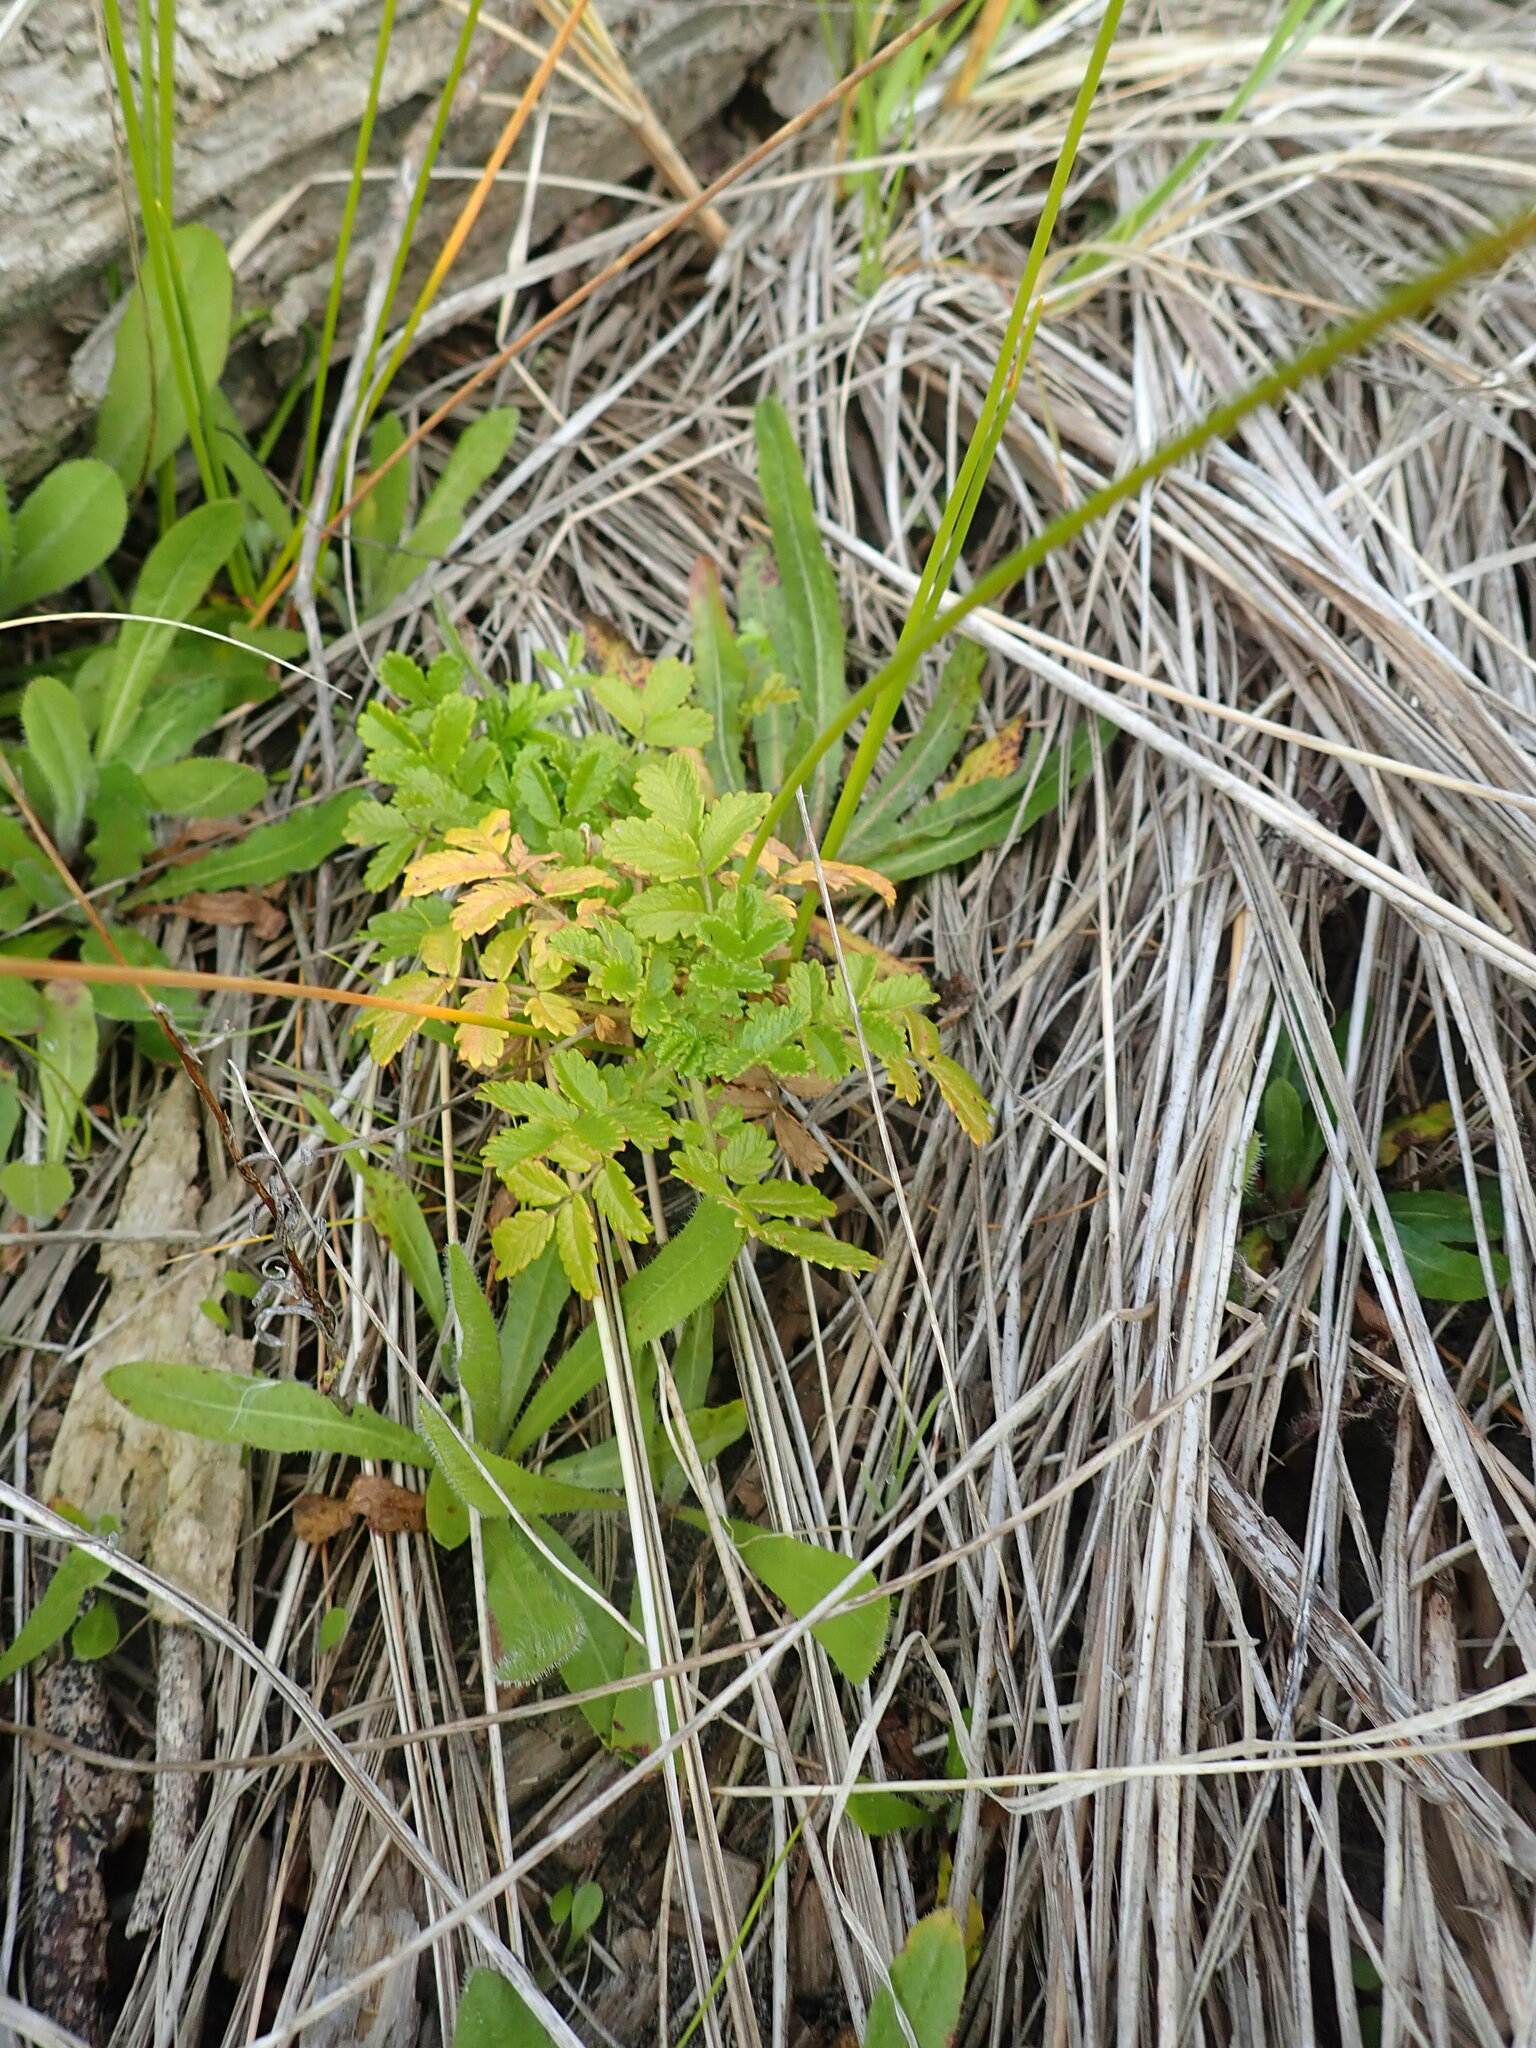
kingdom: Plantae
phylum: Tracheophyta
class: Magnoliopsida
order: Rosales
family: Rosaceae
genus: Acaena
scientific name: Acaena novae-zelandiae
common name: Pirri-pirri-bur
